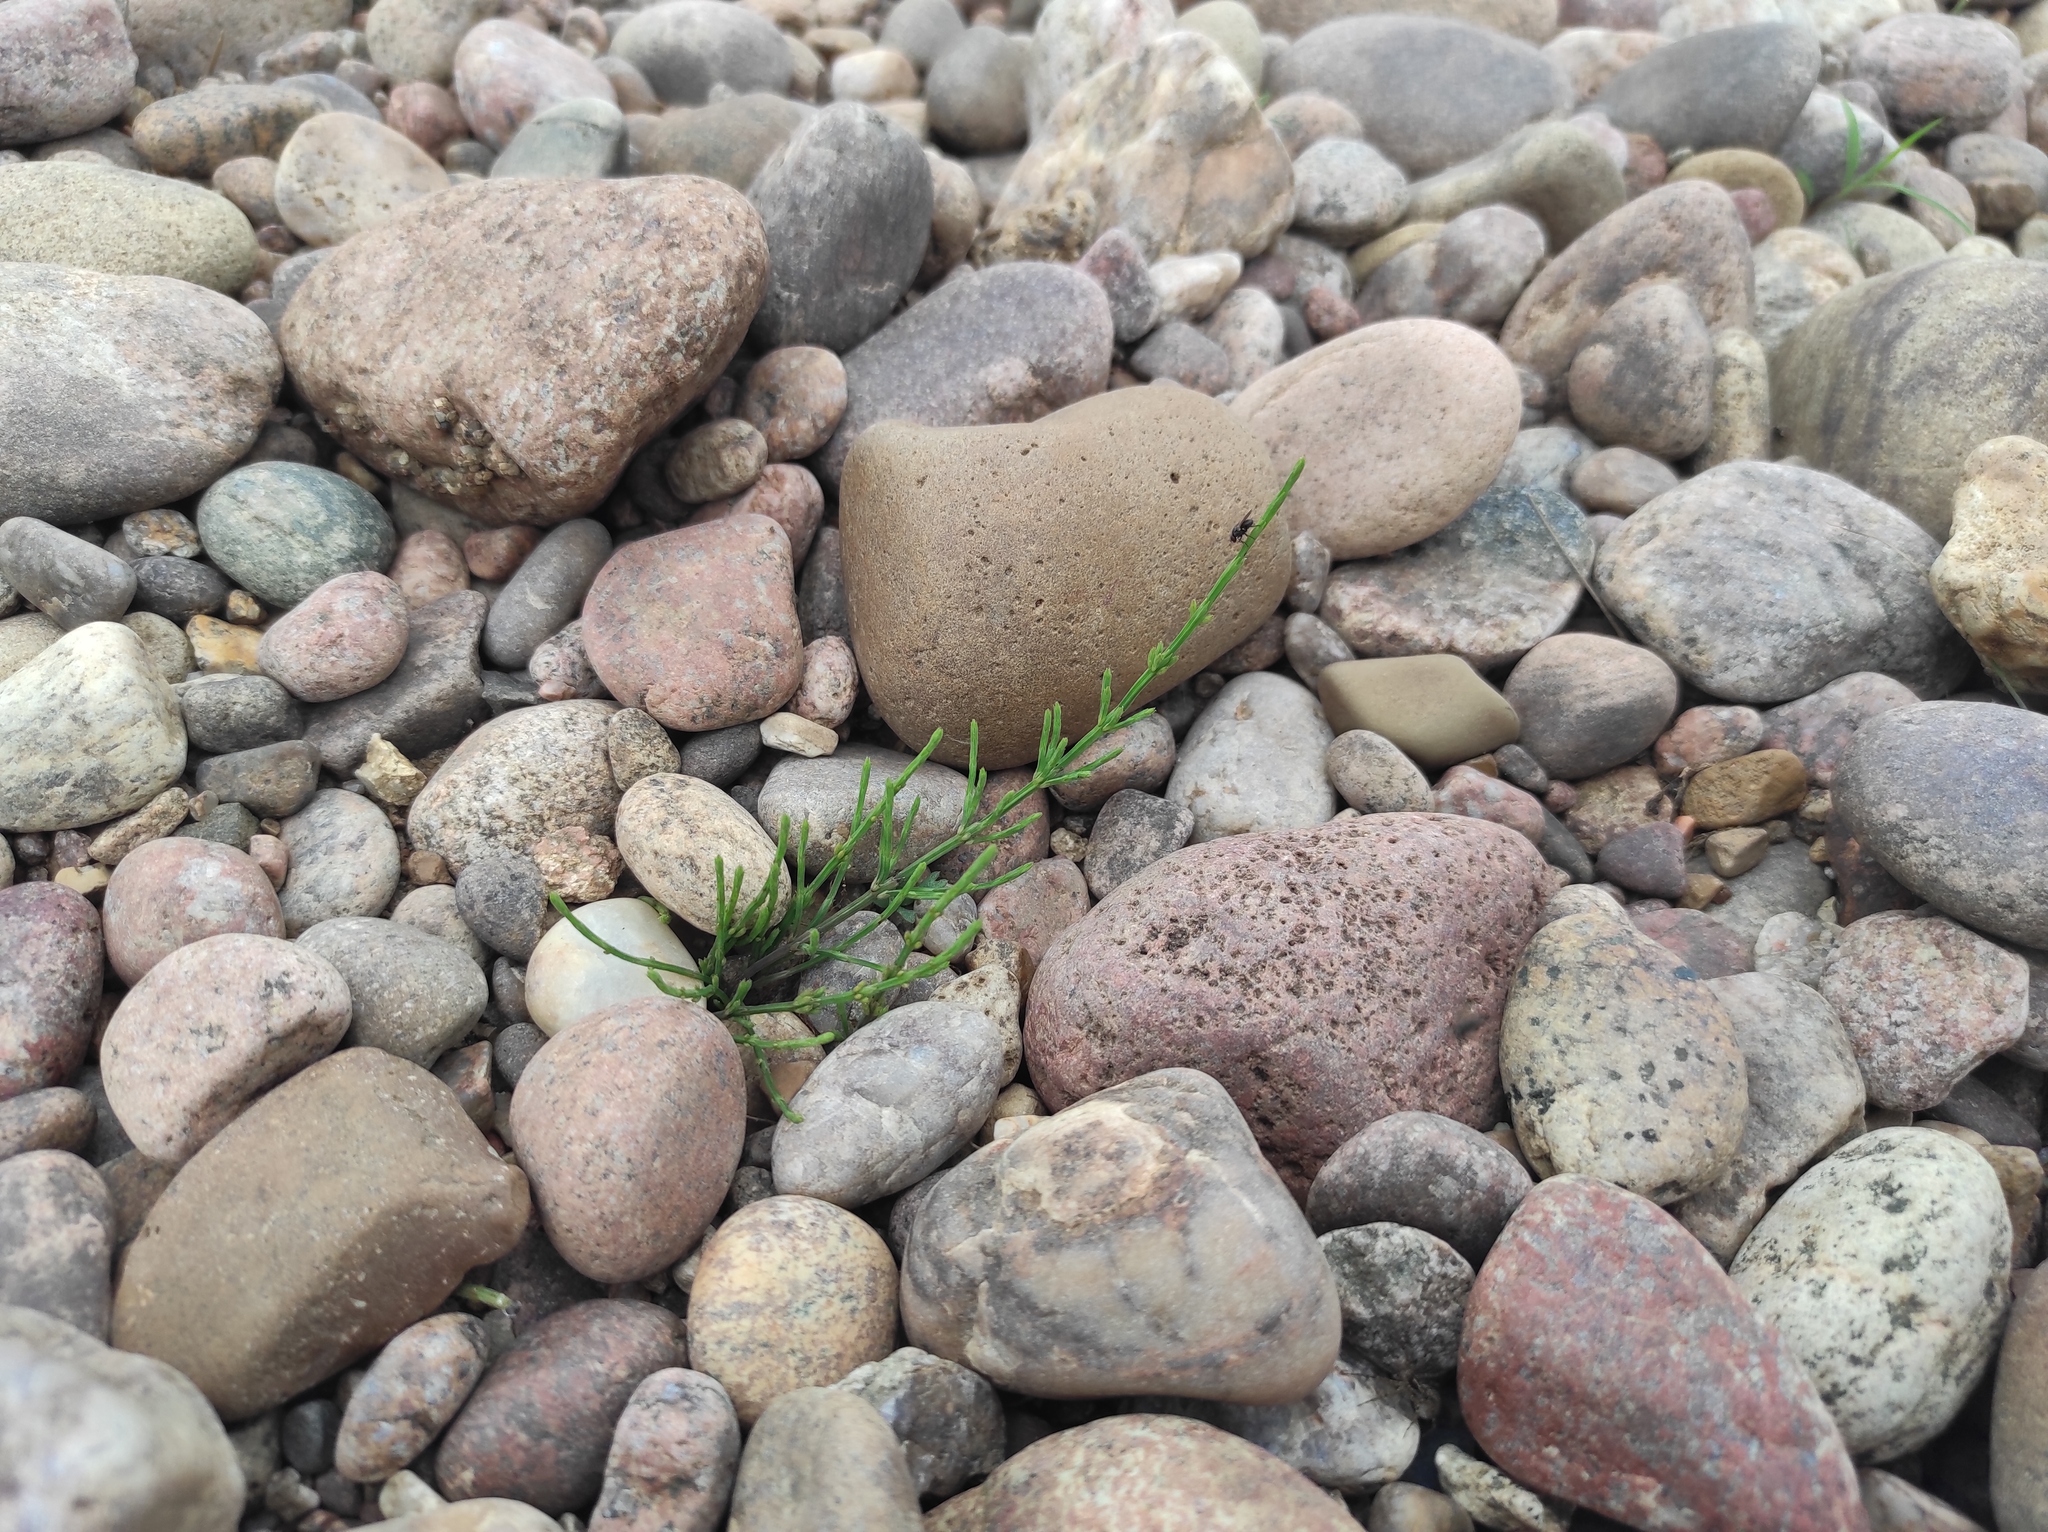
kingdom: Plantae
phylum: Tracheophyta
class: Polypodiopsida
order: Equisetales
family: Equisetaceae
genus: Equisetum
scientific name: Equisetum arvense
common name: Field horsetail
